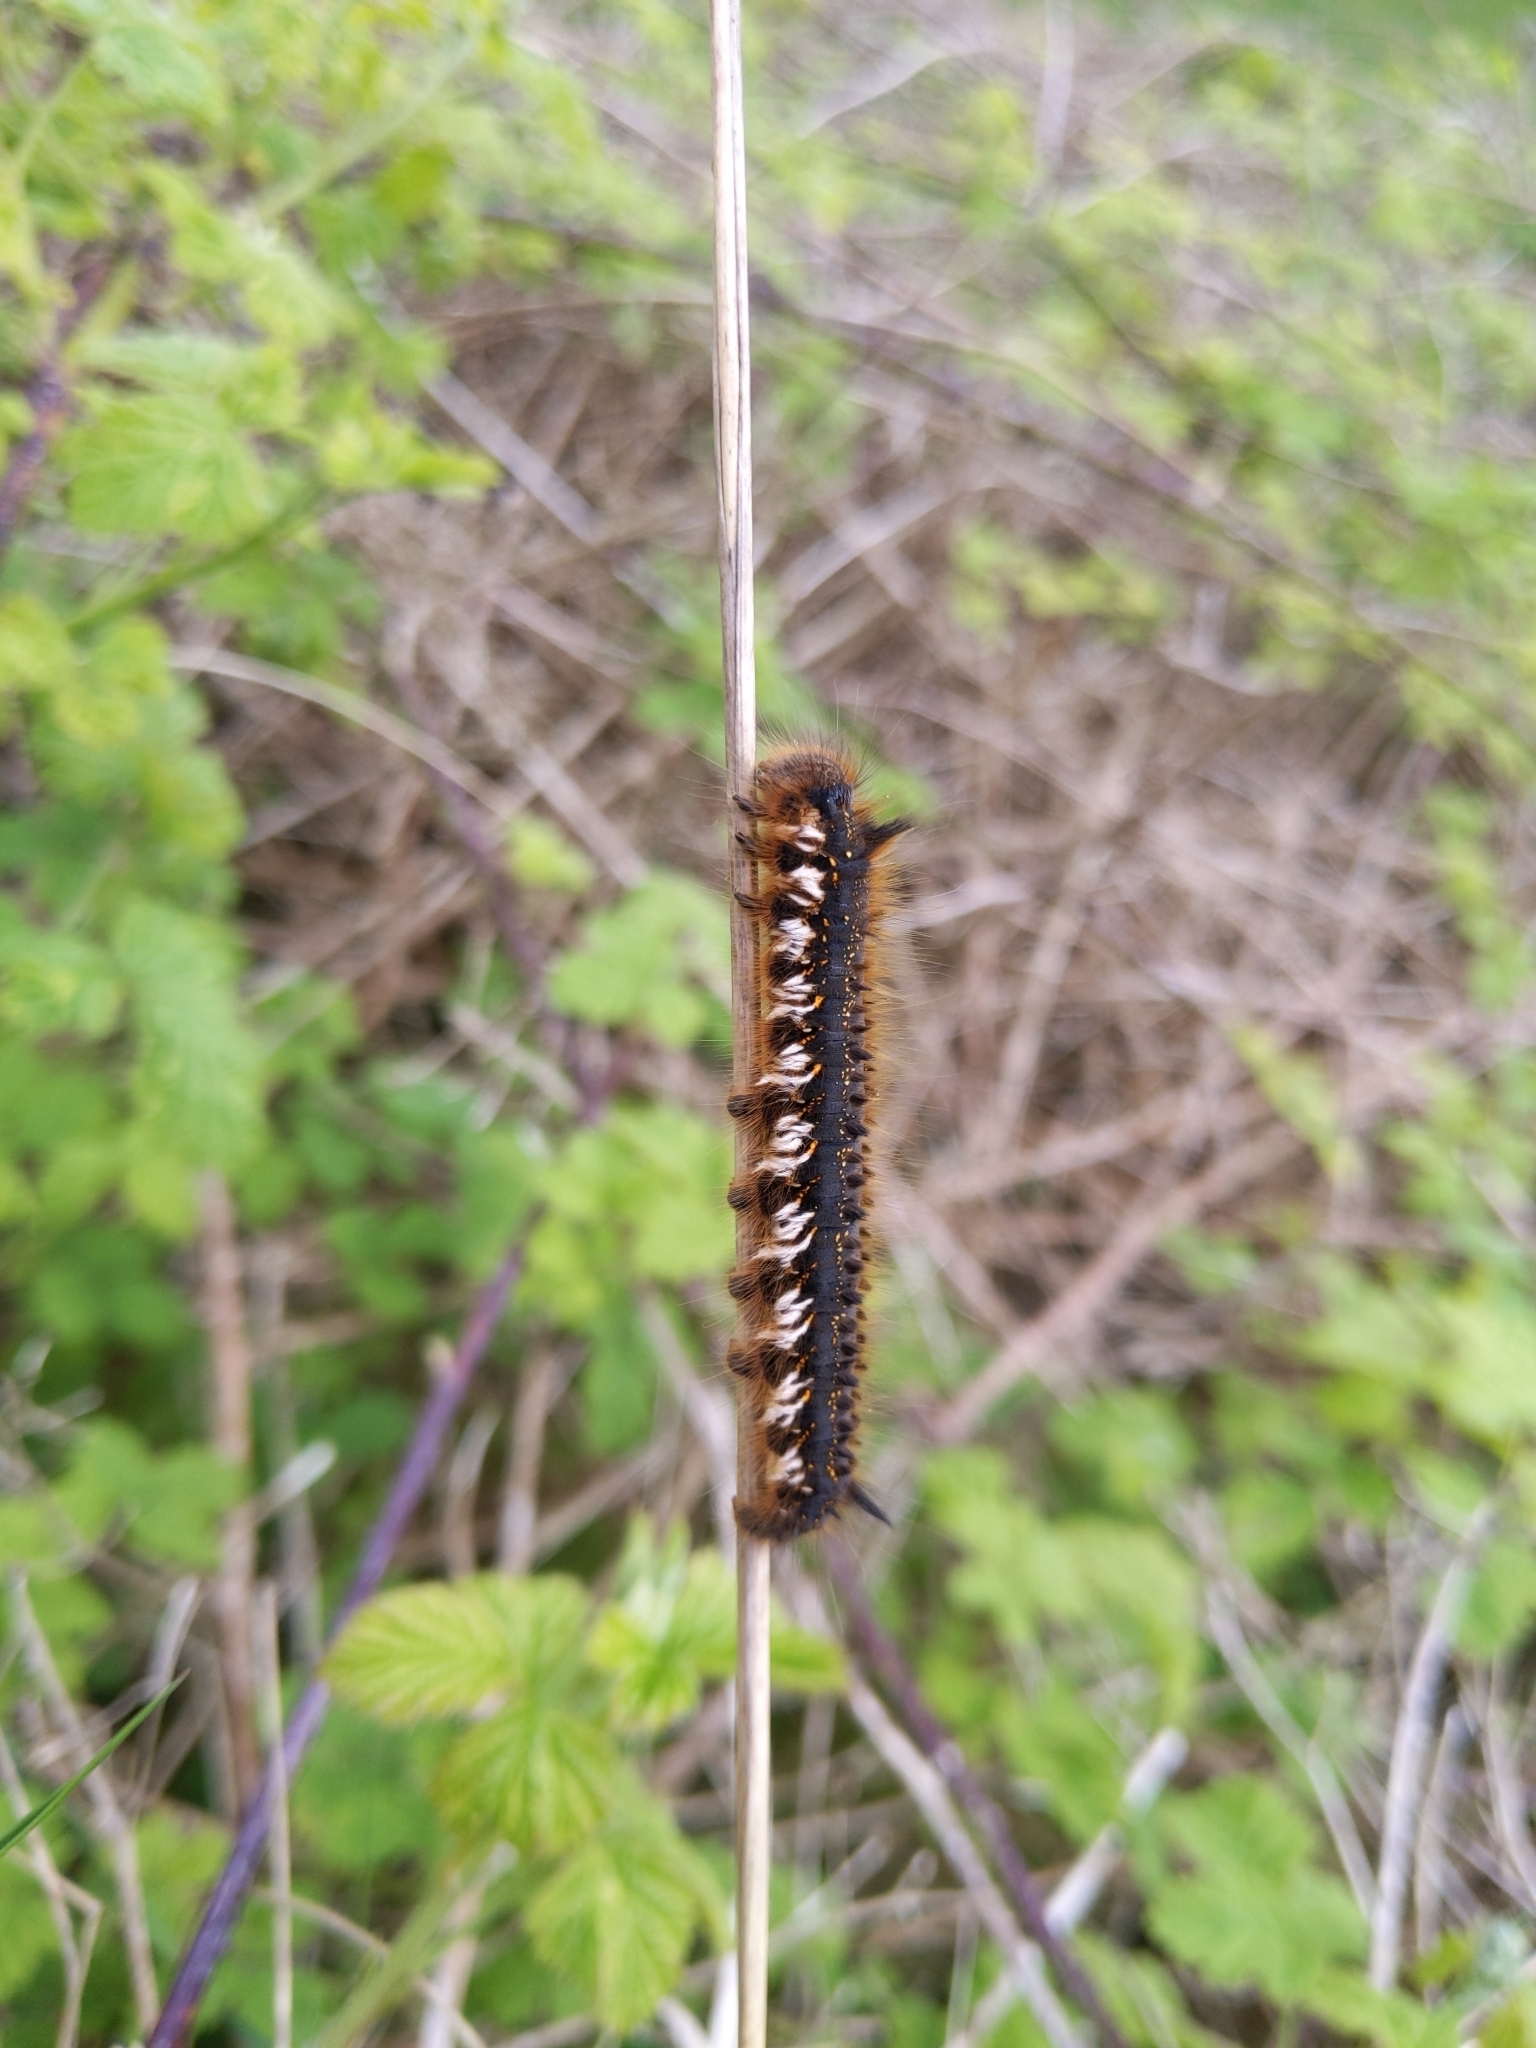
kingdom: Animalia
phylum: Arthropoda
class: Insecta
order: Lepidoptera
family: Lasiocampidae
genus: Euthrix
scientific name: Euthrix potatoria
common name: Drinker
